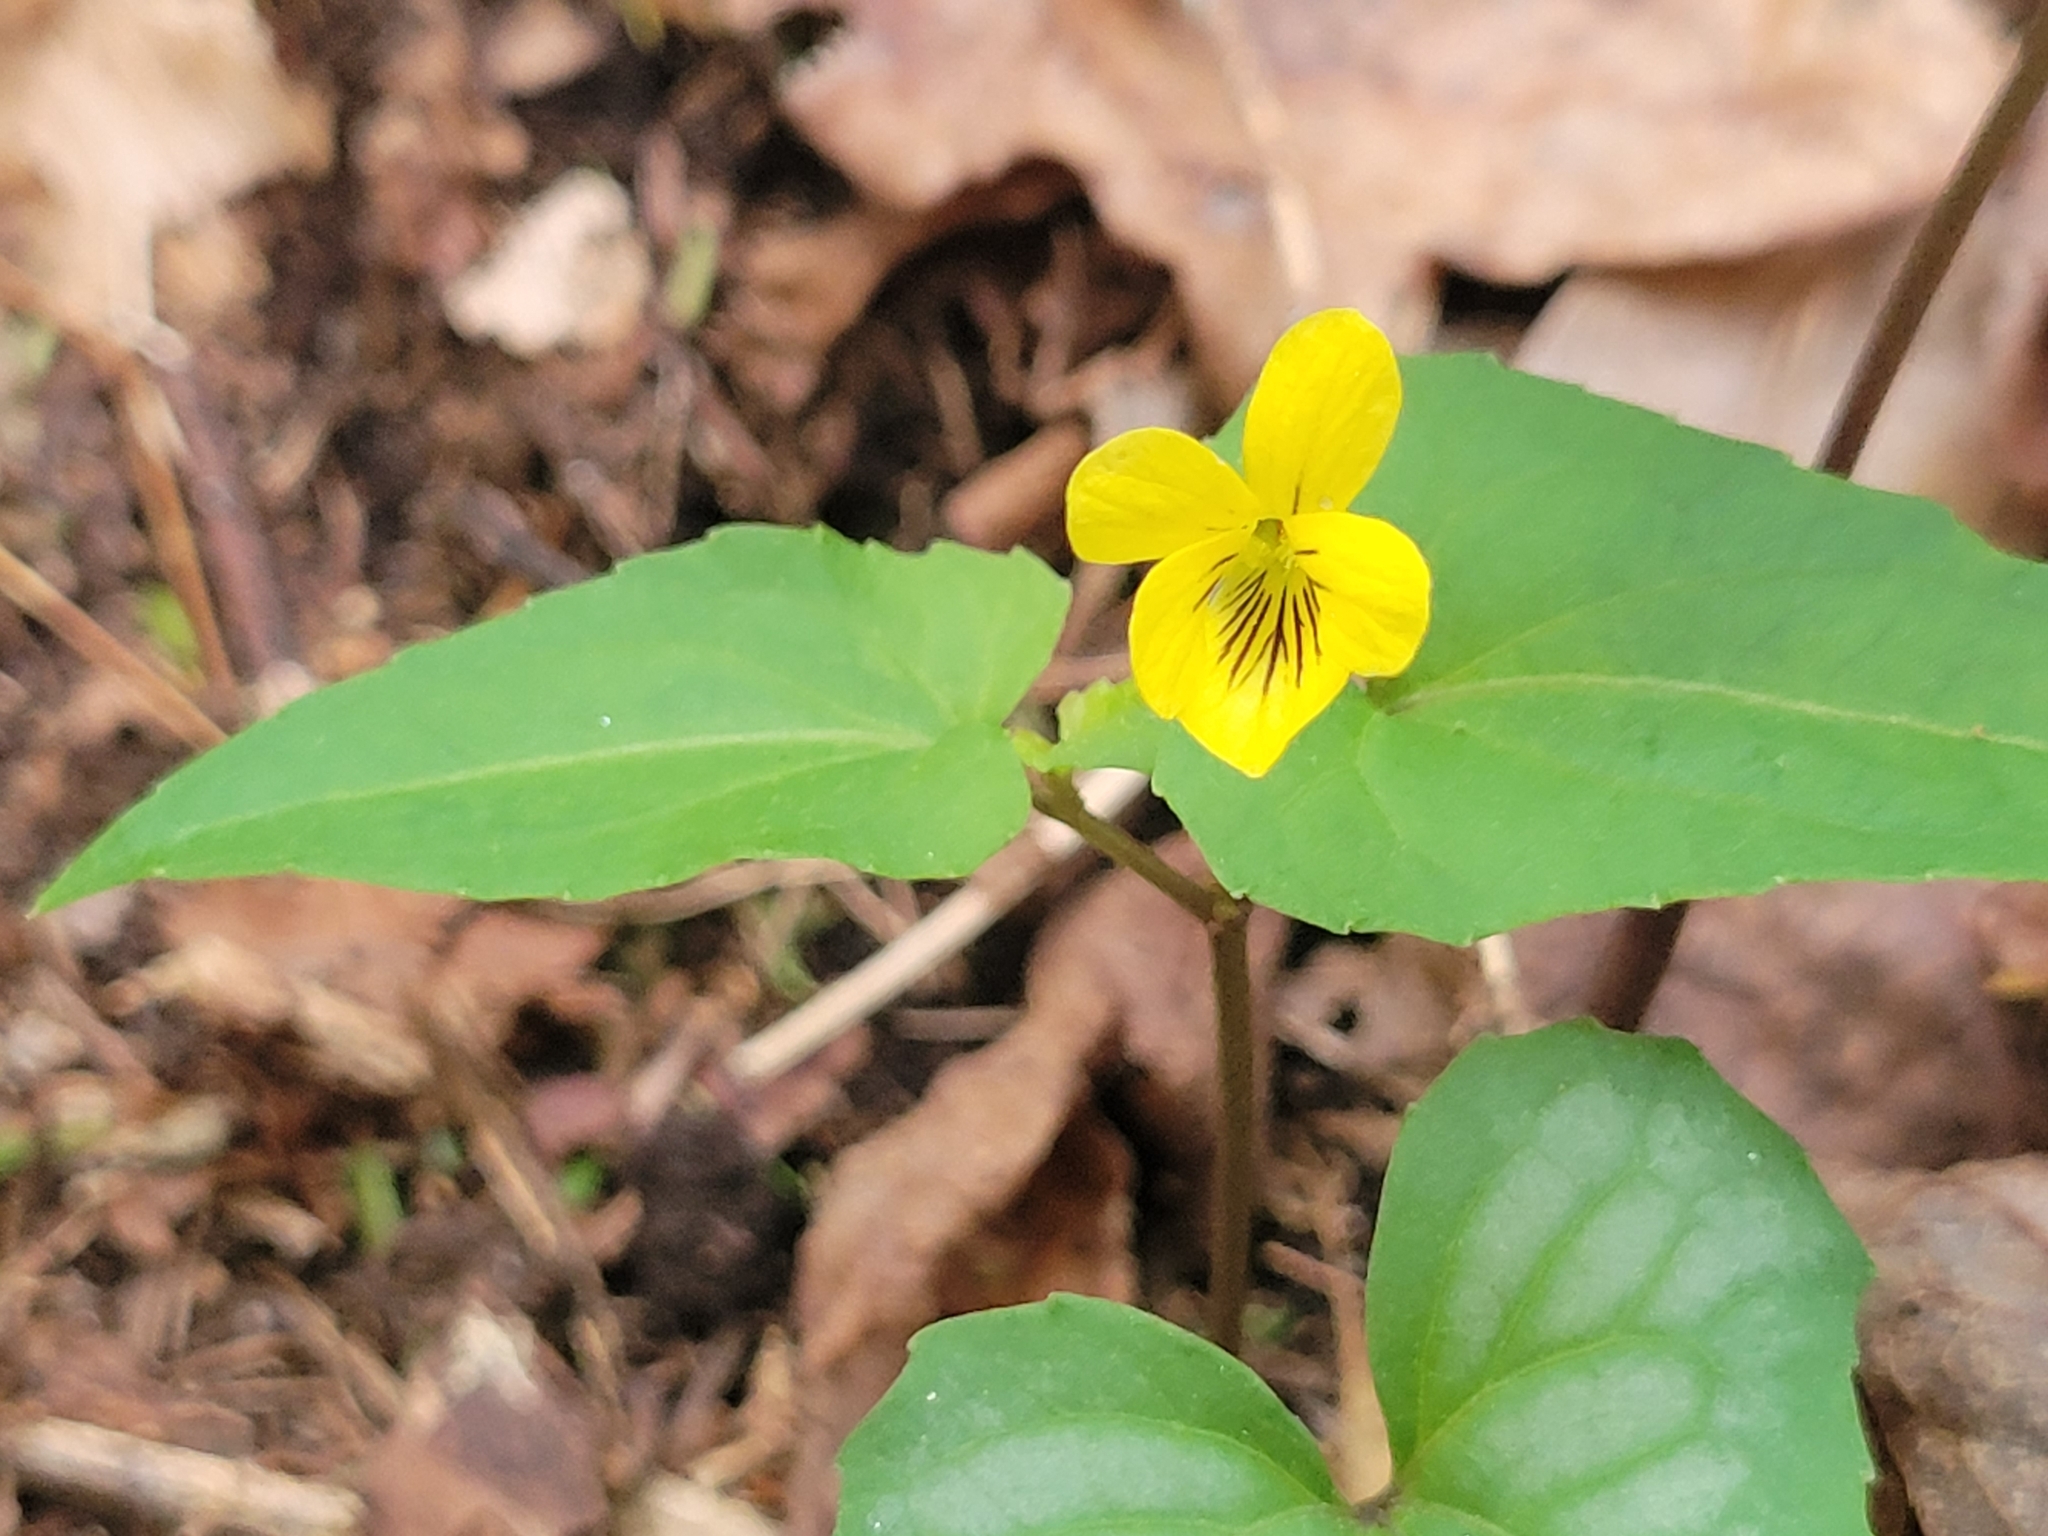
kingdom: Plantae
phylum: Tracheophyta
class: Magnoliopsida
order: Malpighiales
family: Violaceae
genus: Viola
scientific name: Viola hastata
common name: Spear-leaf violet
